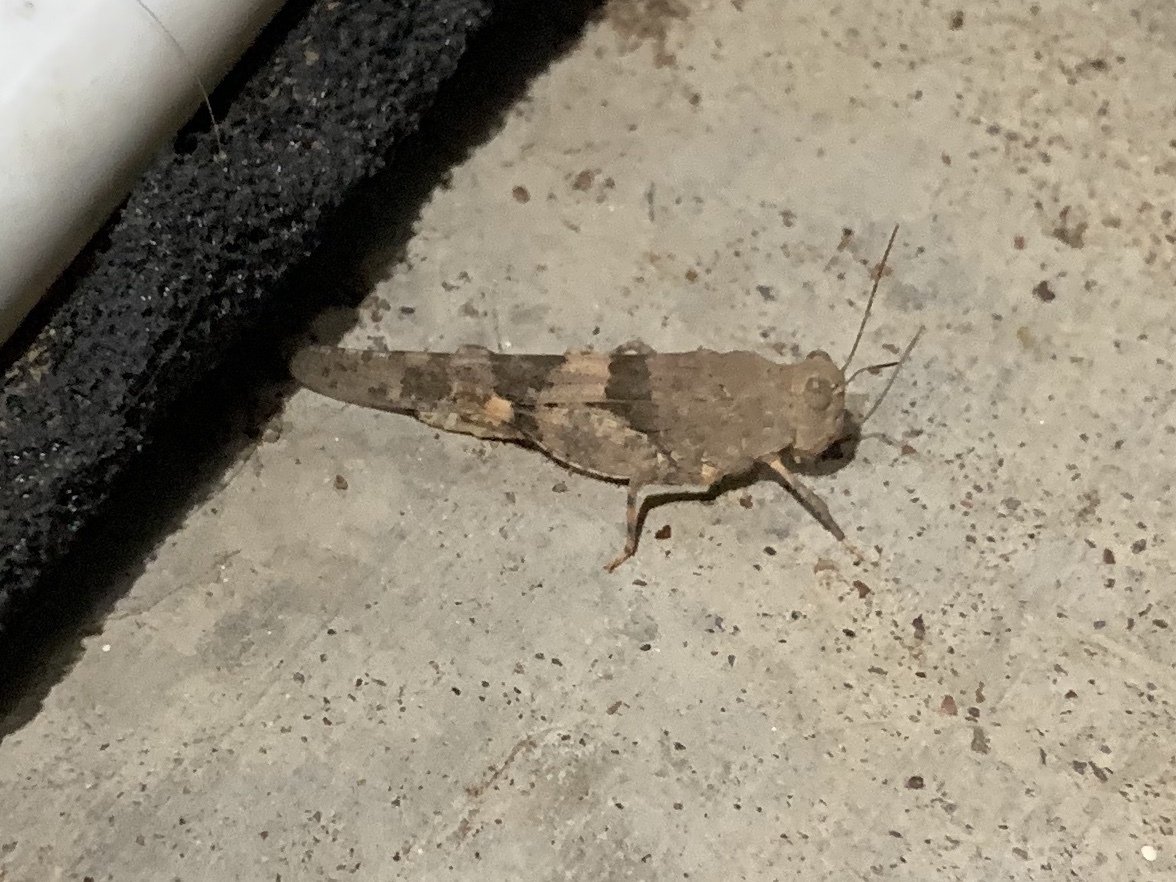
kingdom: Animalia
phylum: Arthropoda
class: Insecta
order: Orthoptera
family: Acrididae
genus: Trimerotropis
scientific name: Trimerotropis pallidipennis
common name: Pallid-winged grasshopper
